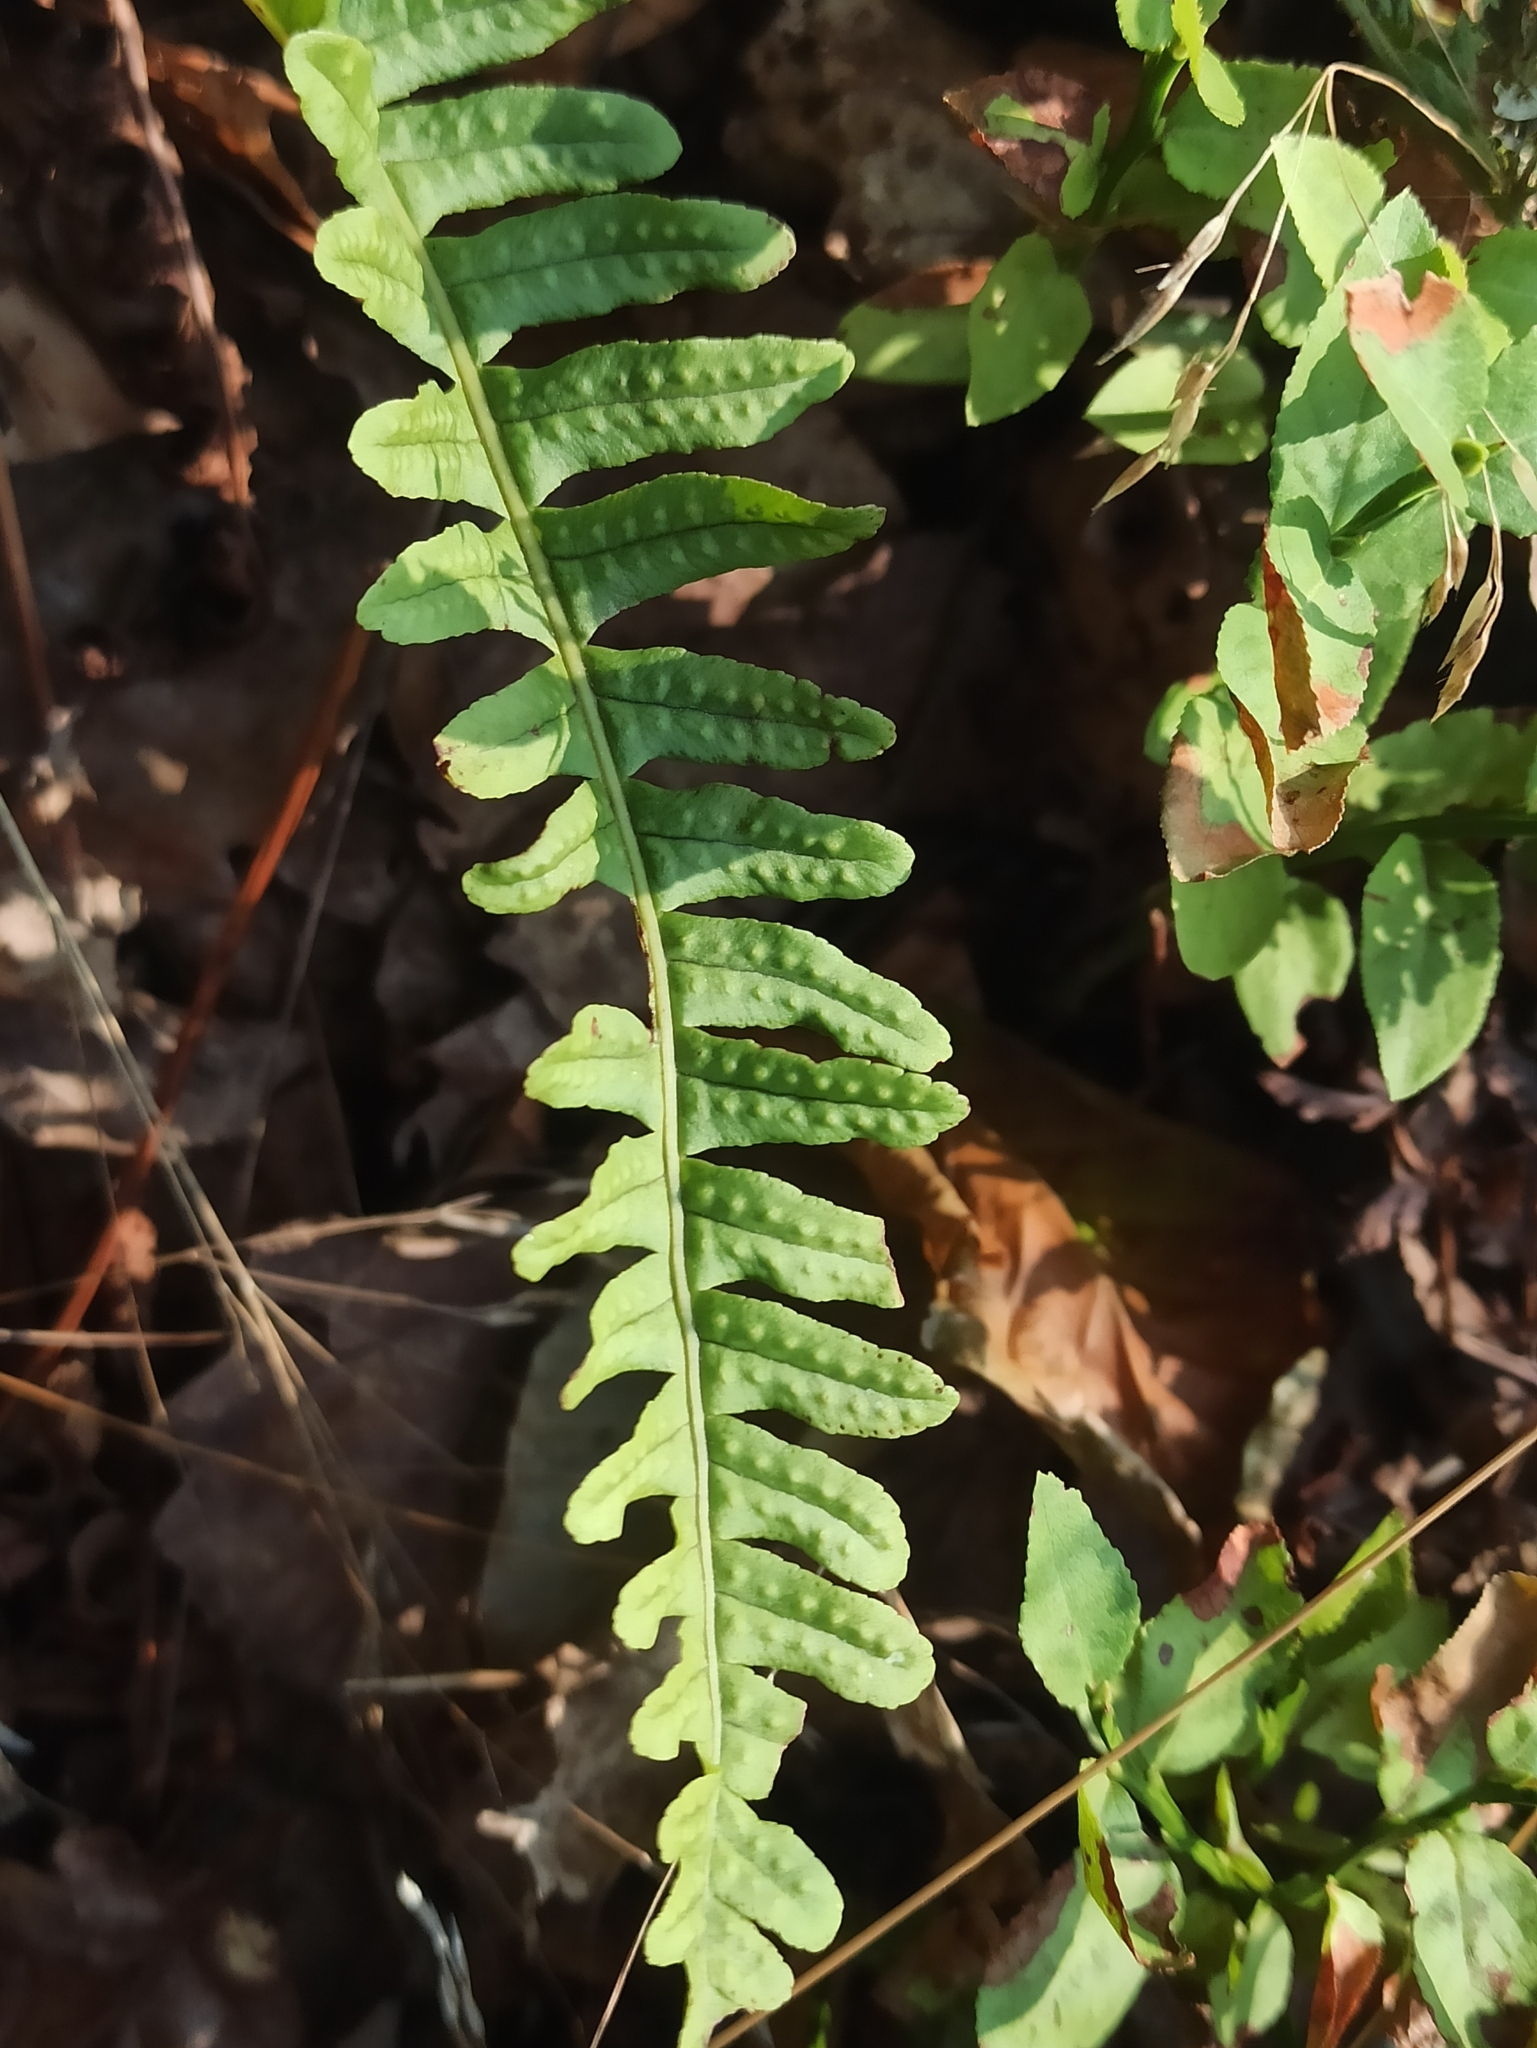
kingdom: Plantae
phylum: Tracheophyta
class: Polypodiopsida
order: Polypodiales
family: Polypodiaceae
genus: Polypodium
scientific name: Polypodium vulgare
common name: Common polypody
